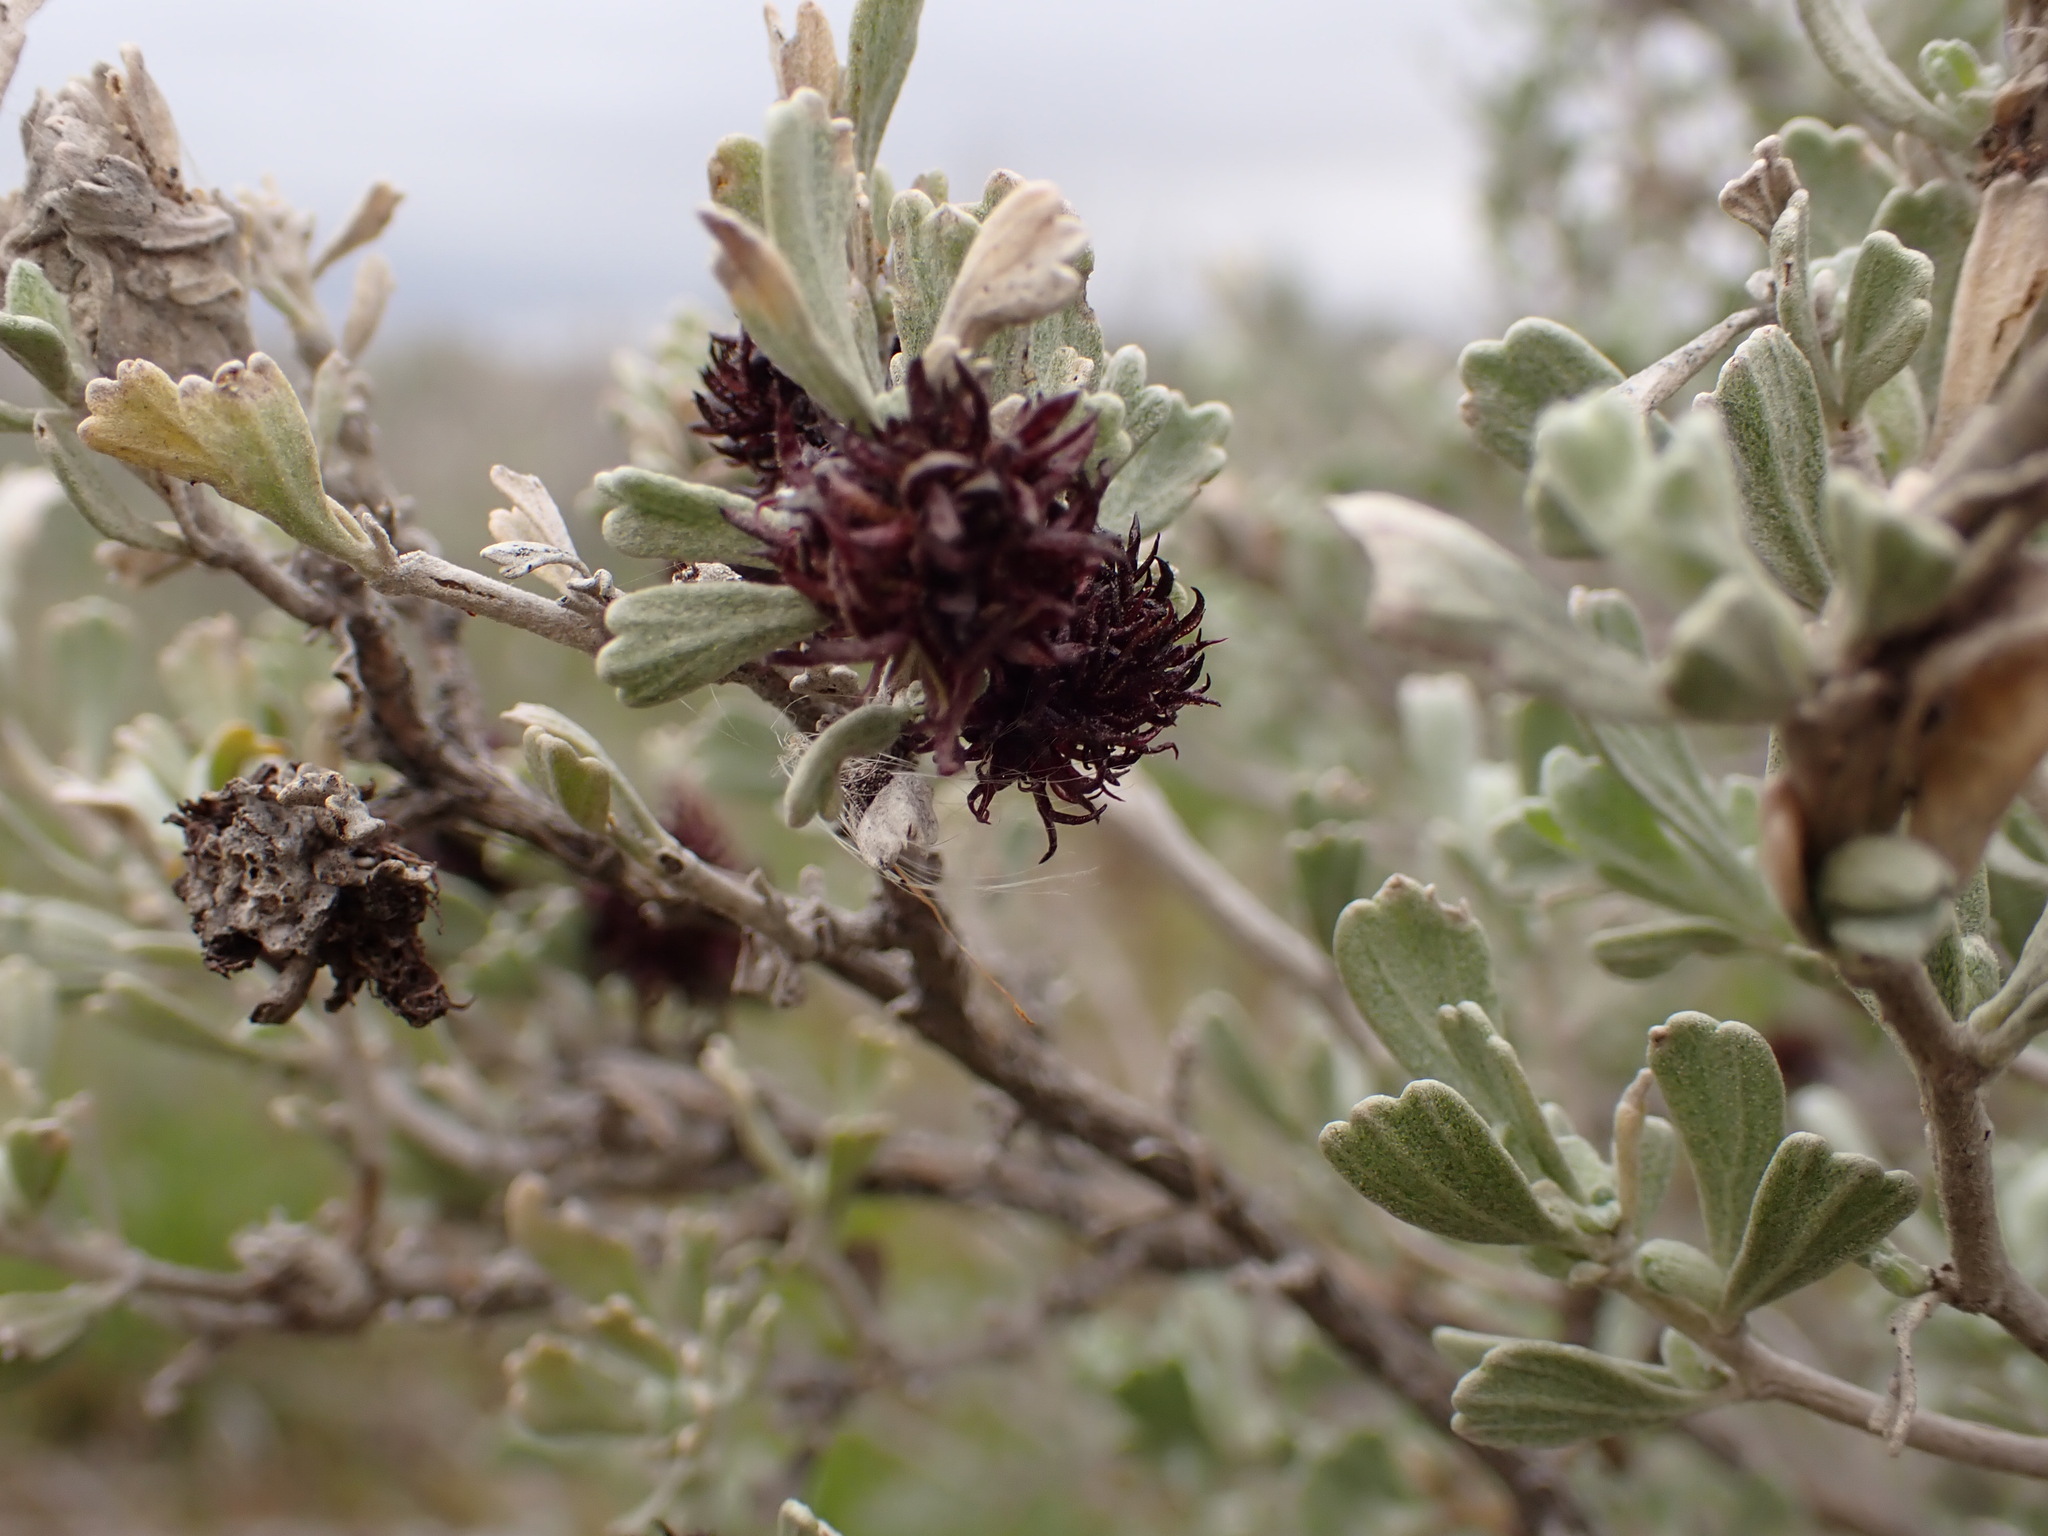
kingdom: Animalia
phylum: Arthropoda
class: Insecta
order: Diptera
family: Cecidomyiidae
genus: Rhopalomyia
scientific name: Rhopalomyia medusa
